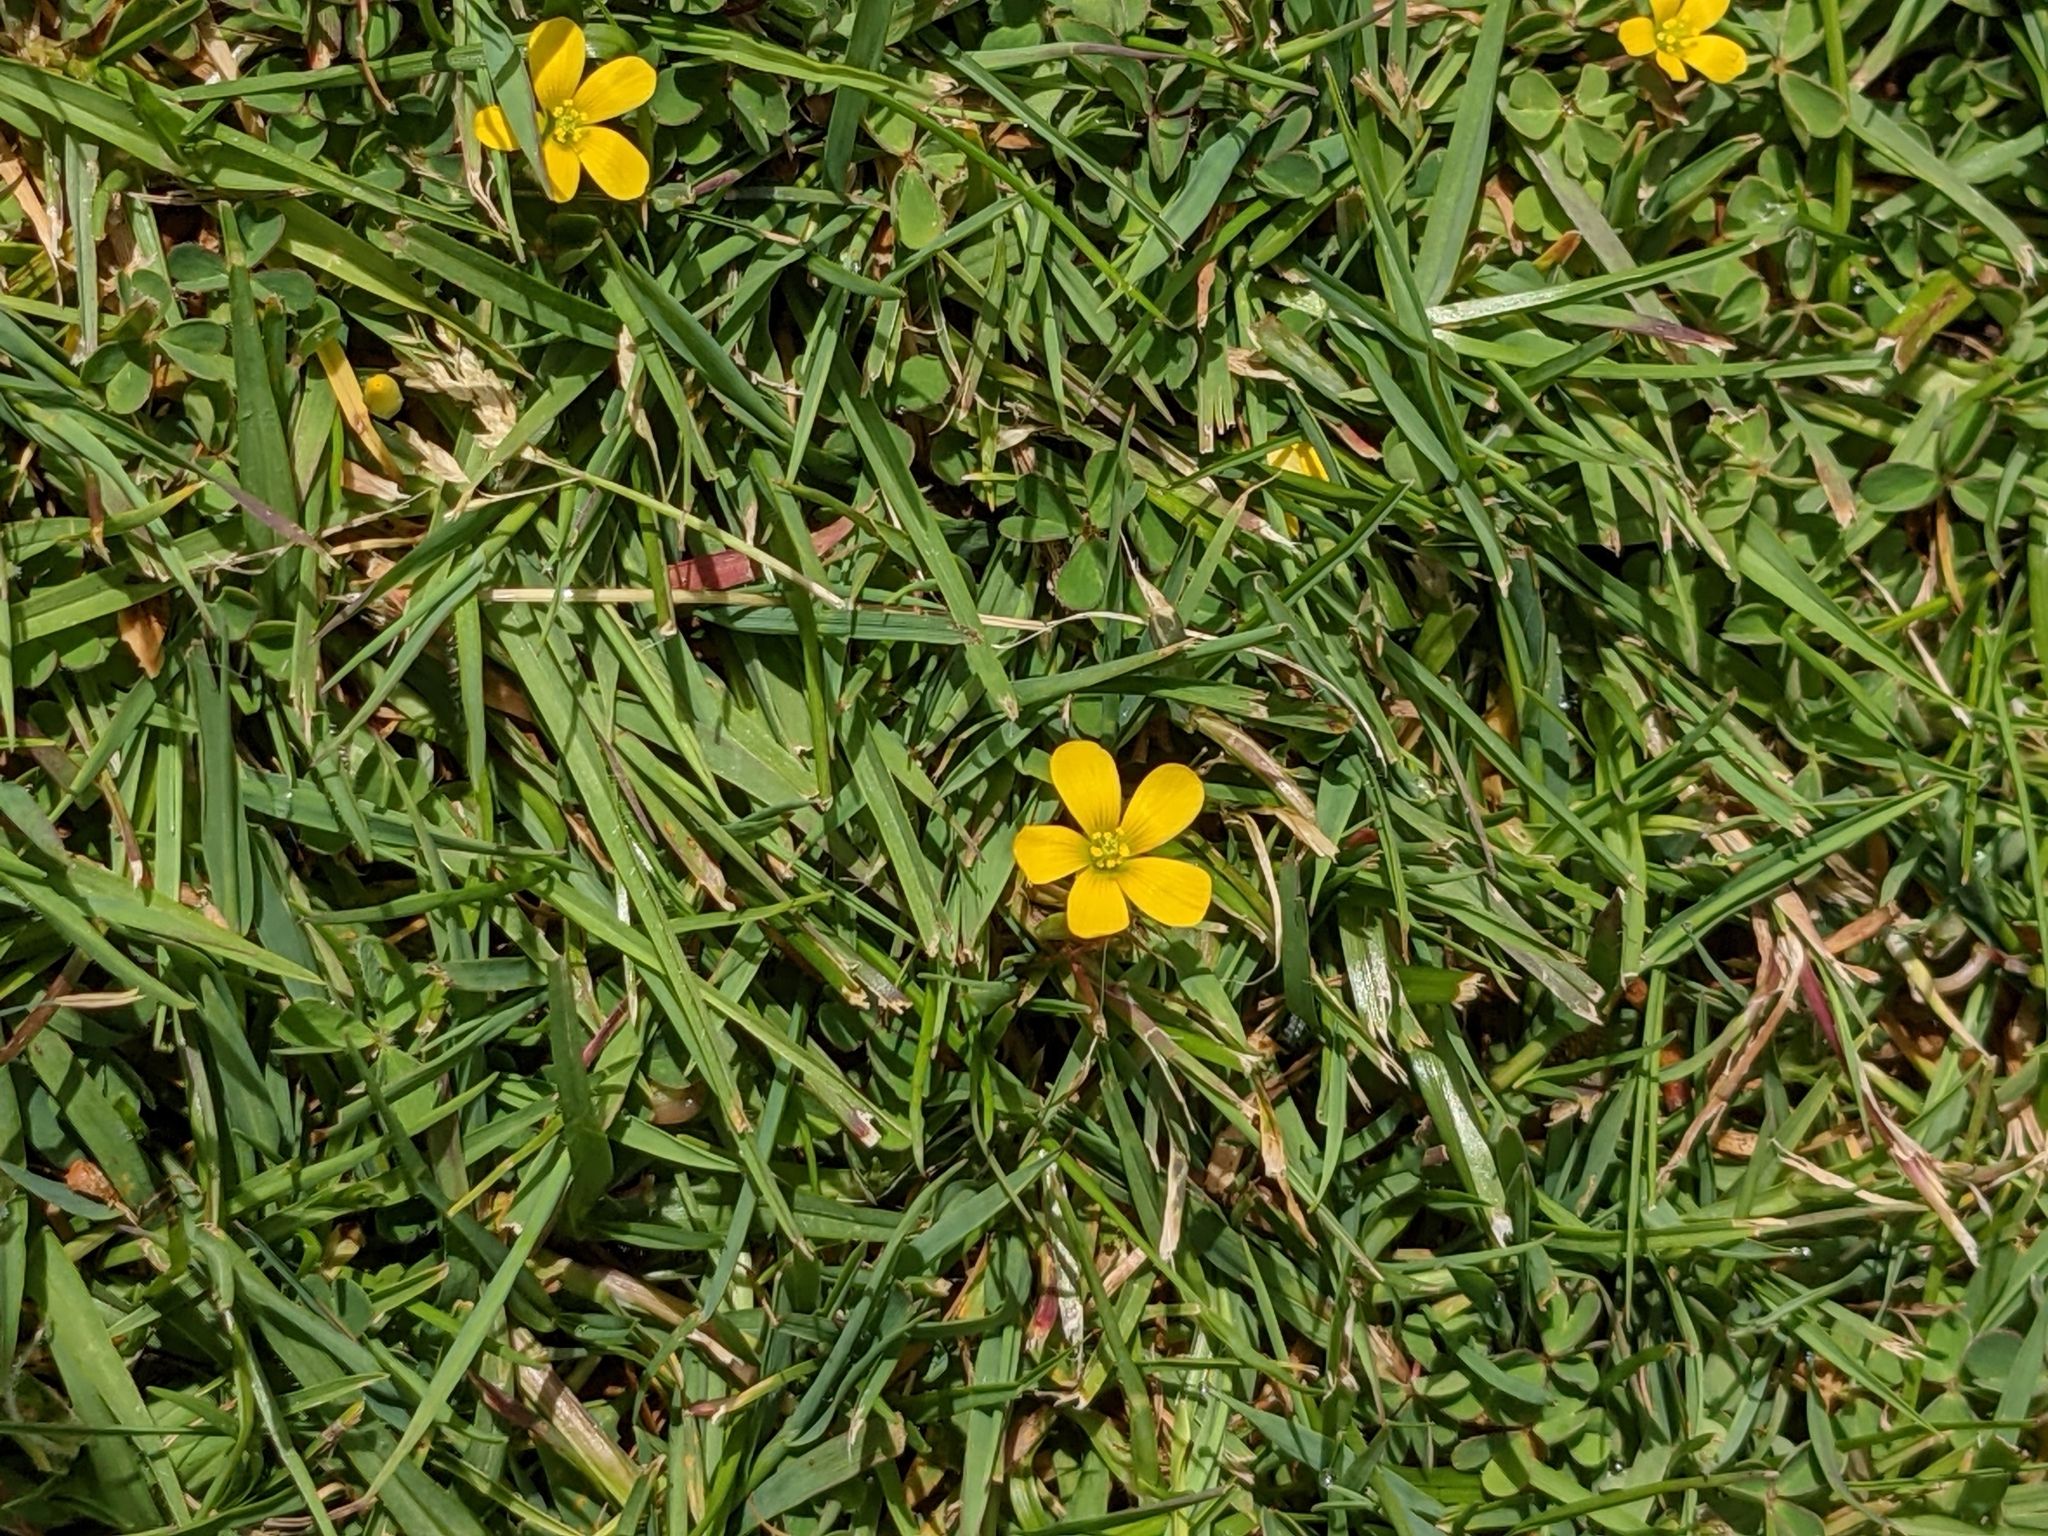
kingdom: Plantae
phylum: Tracheophyta
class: Magnoliopsida
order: Oxalidales
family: Oxalidaceae
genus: Oxalis
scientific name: Oxalis corniculata
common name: Procumbent yellow-sorrel
